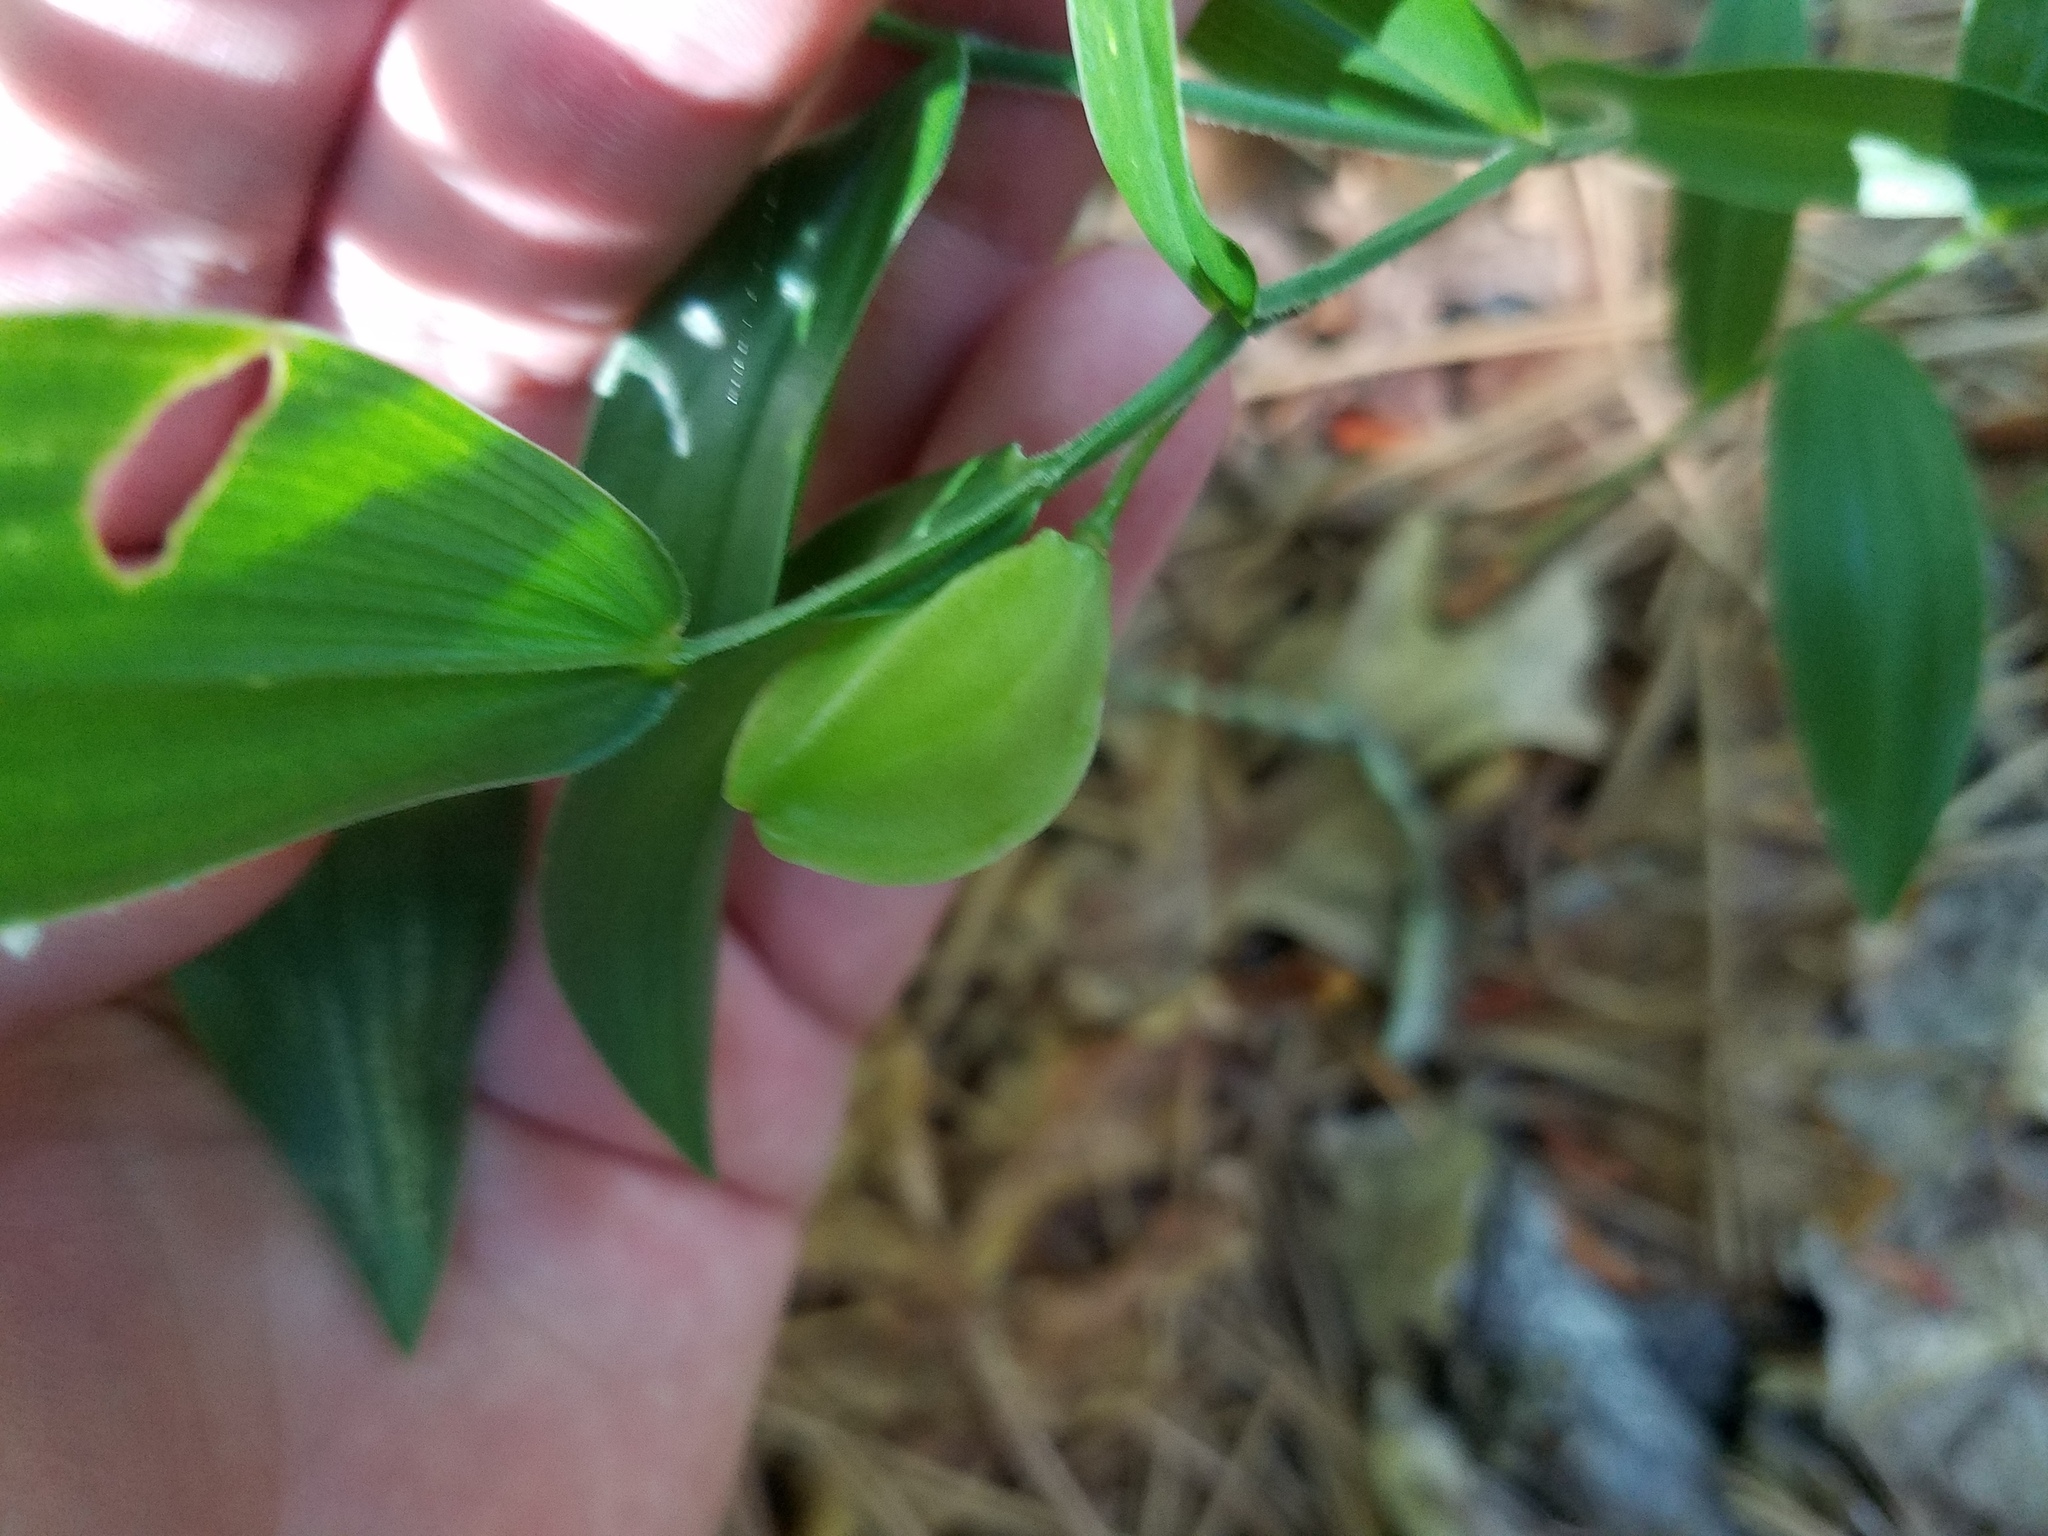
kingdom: Plantae
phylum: Tracheophyta
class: Liliopsida
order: Liliales
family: Colchicaceae
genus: Uvularia
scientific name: Uvularia puberula
